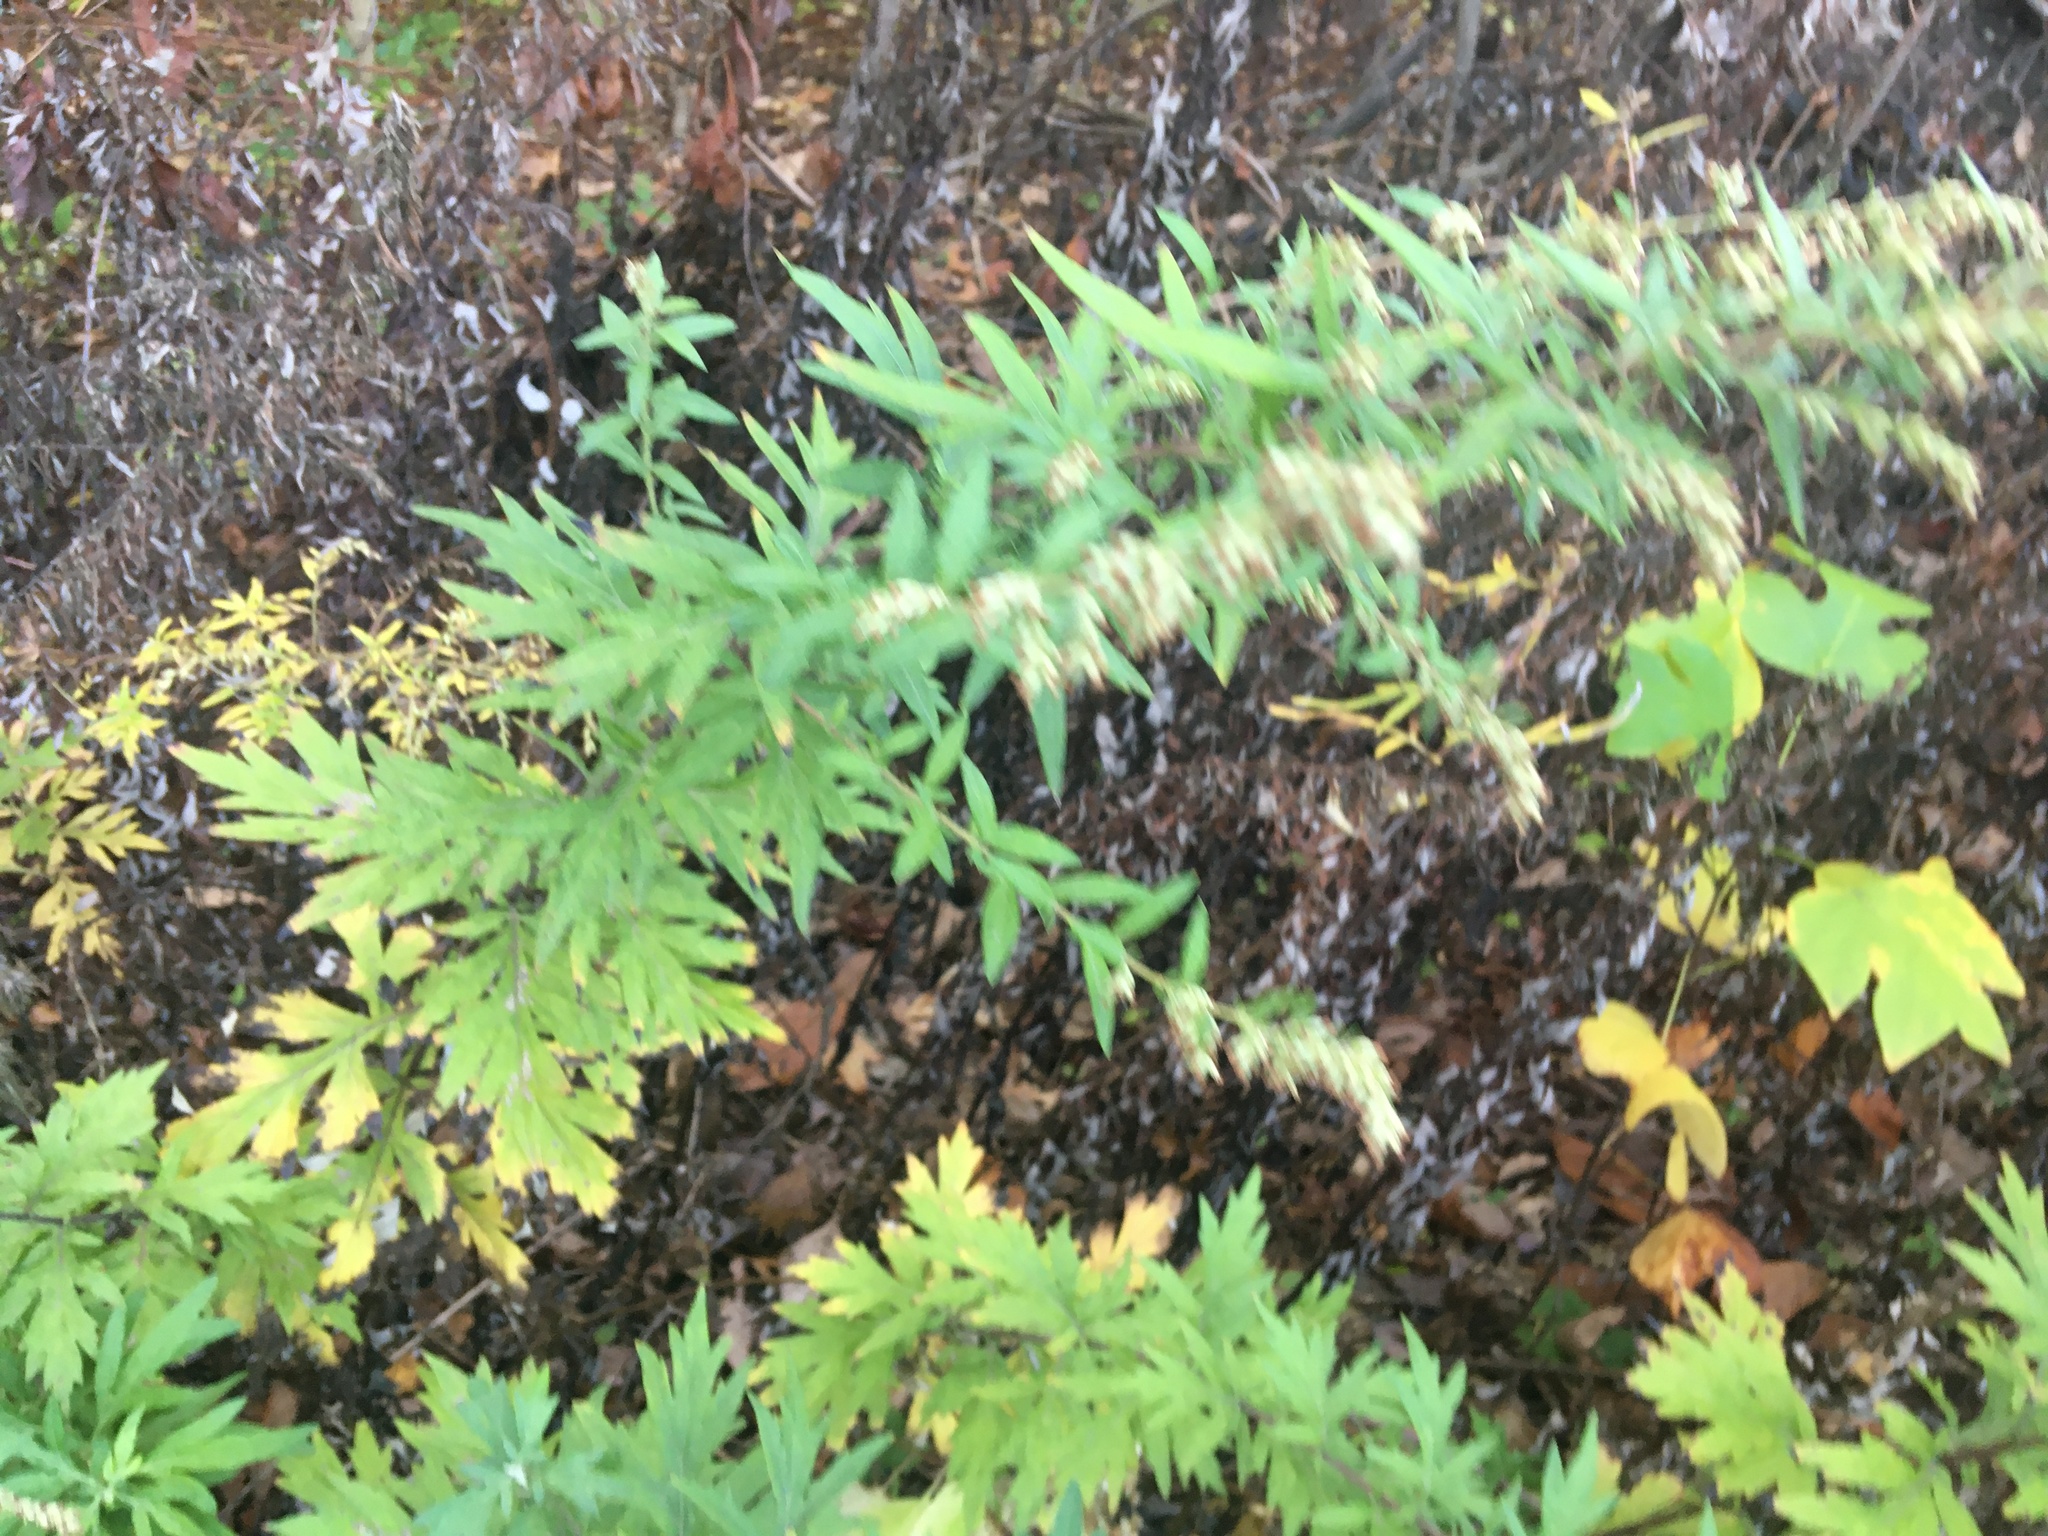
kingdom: Plantae
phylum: Tracheophyta
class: Magnoliopsida
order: Asterales
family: Asteraceae
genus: Artemisia
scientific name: Artemisia vulgaris
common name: Mugwort
